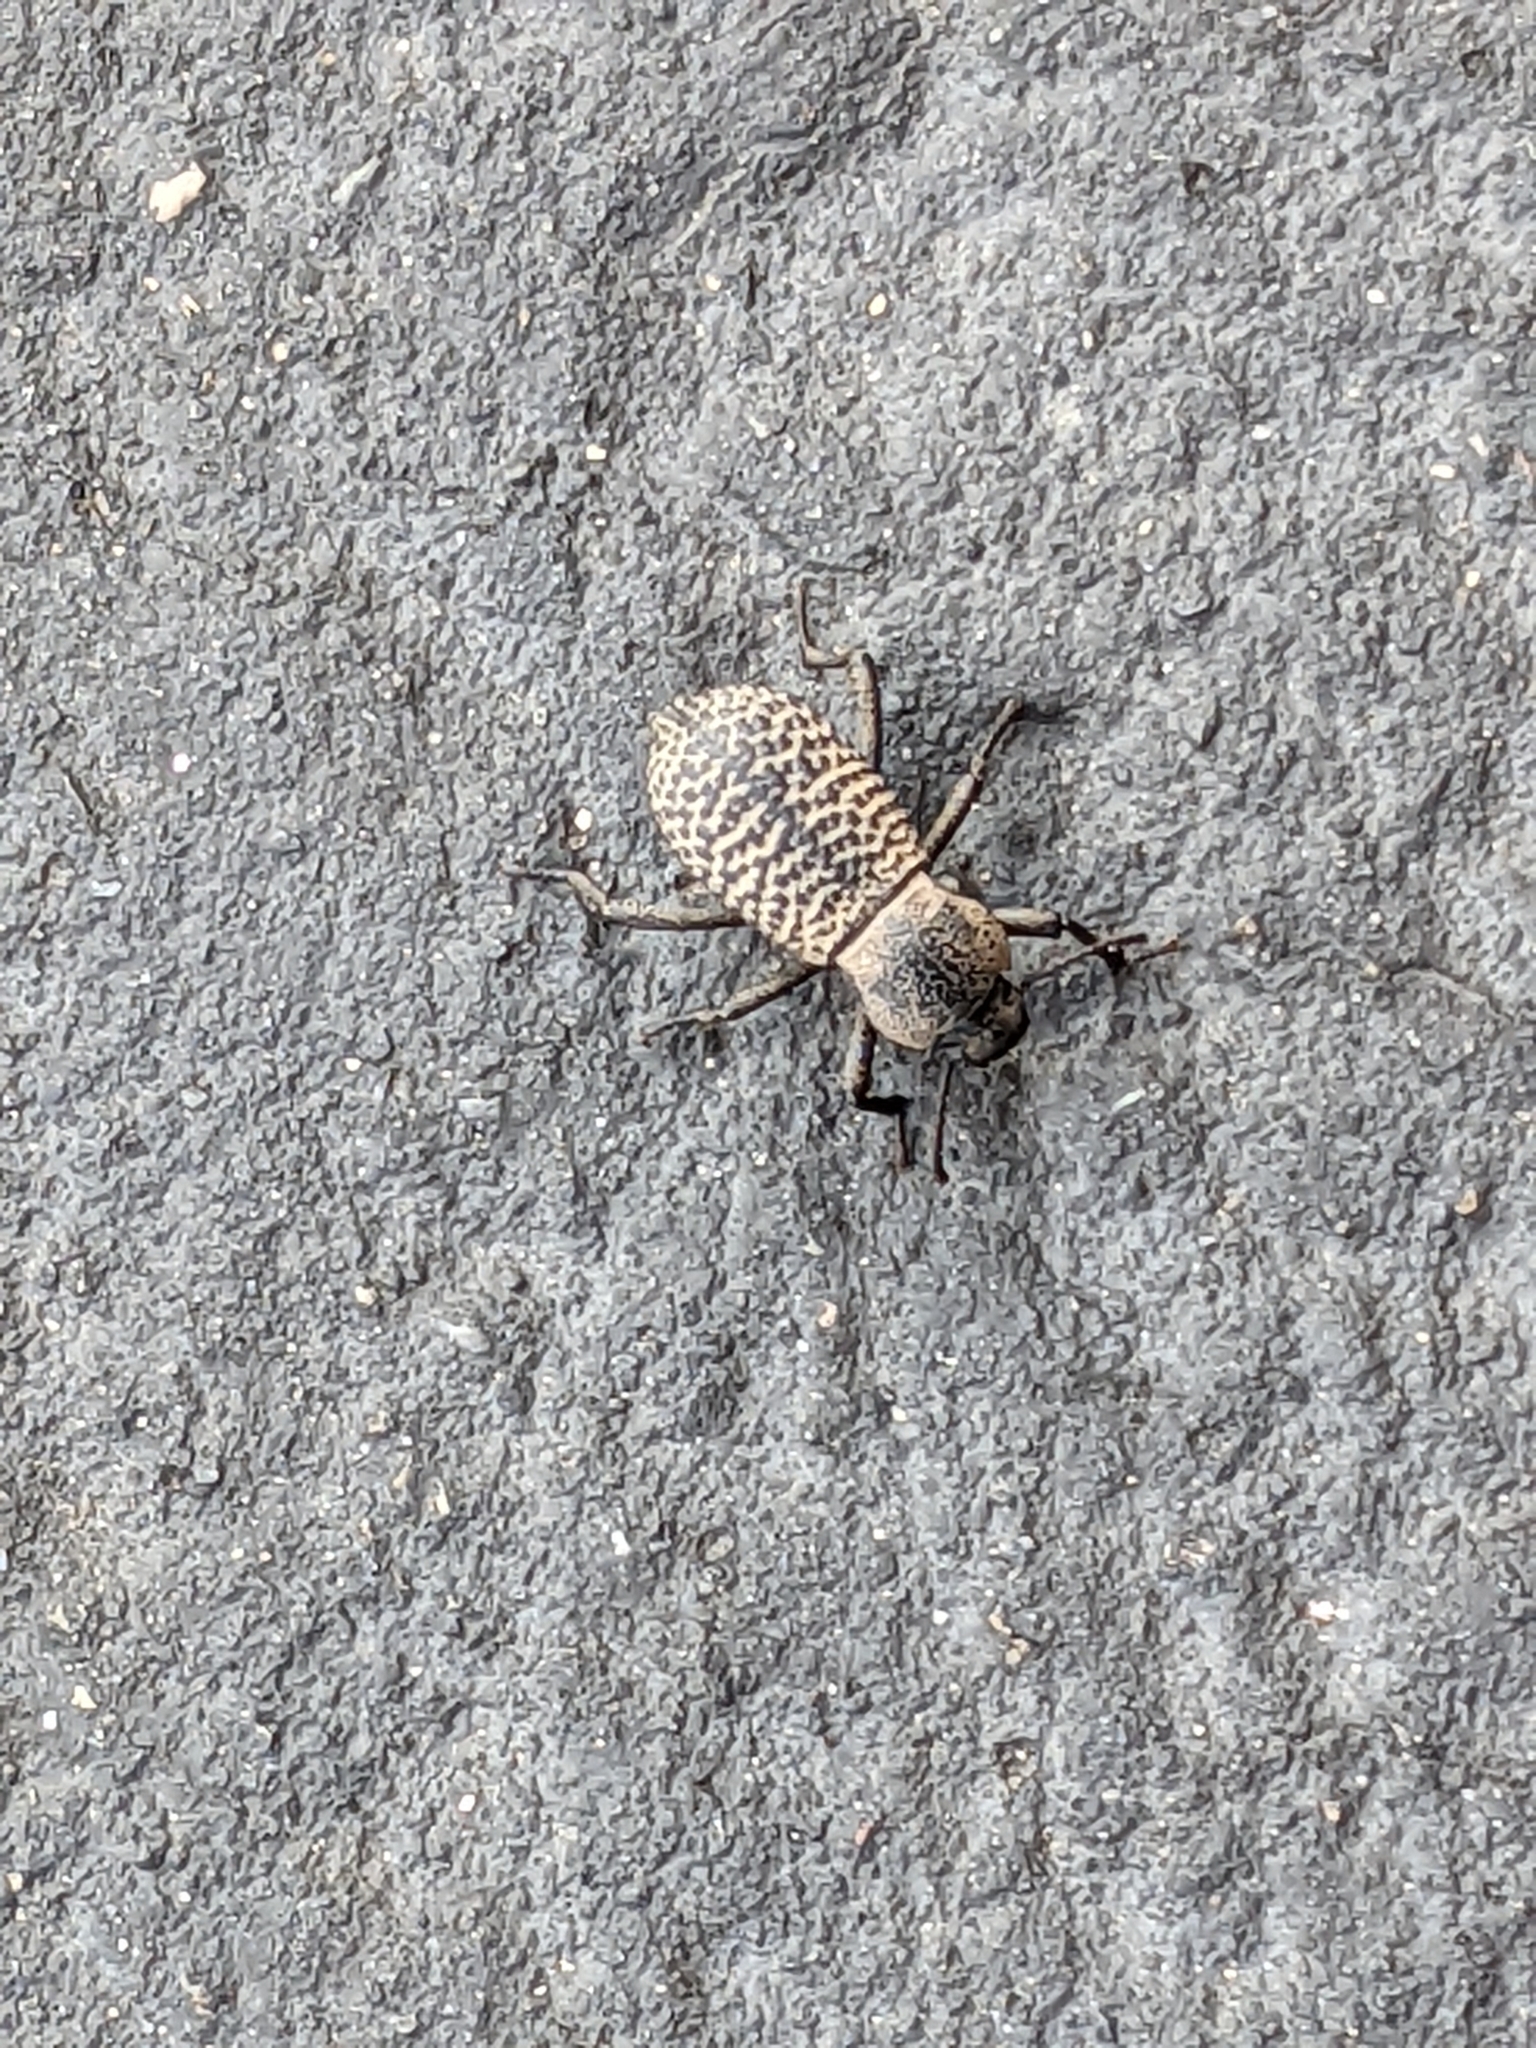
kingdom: Animalia
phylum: Arthropoda
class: Insecta
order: Coleoptera
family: Tenebrionidae
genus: Cryptoglossa
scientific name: Cryptoglossa variolosa
